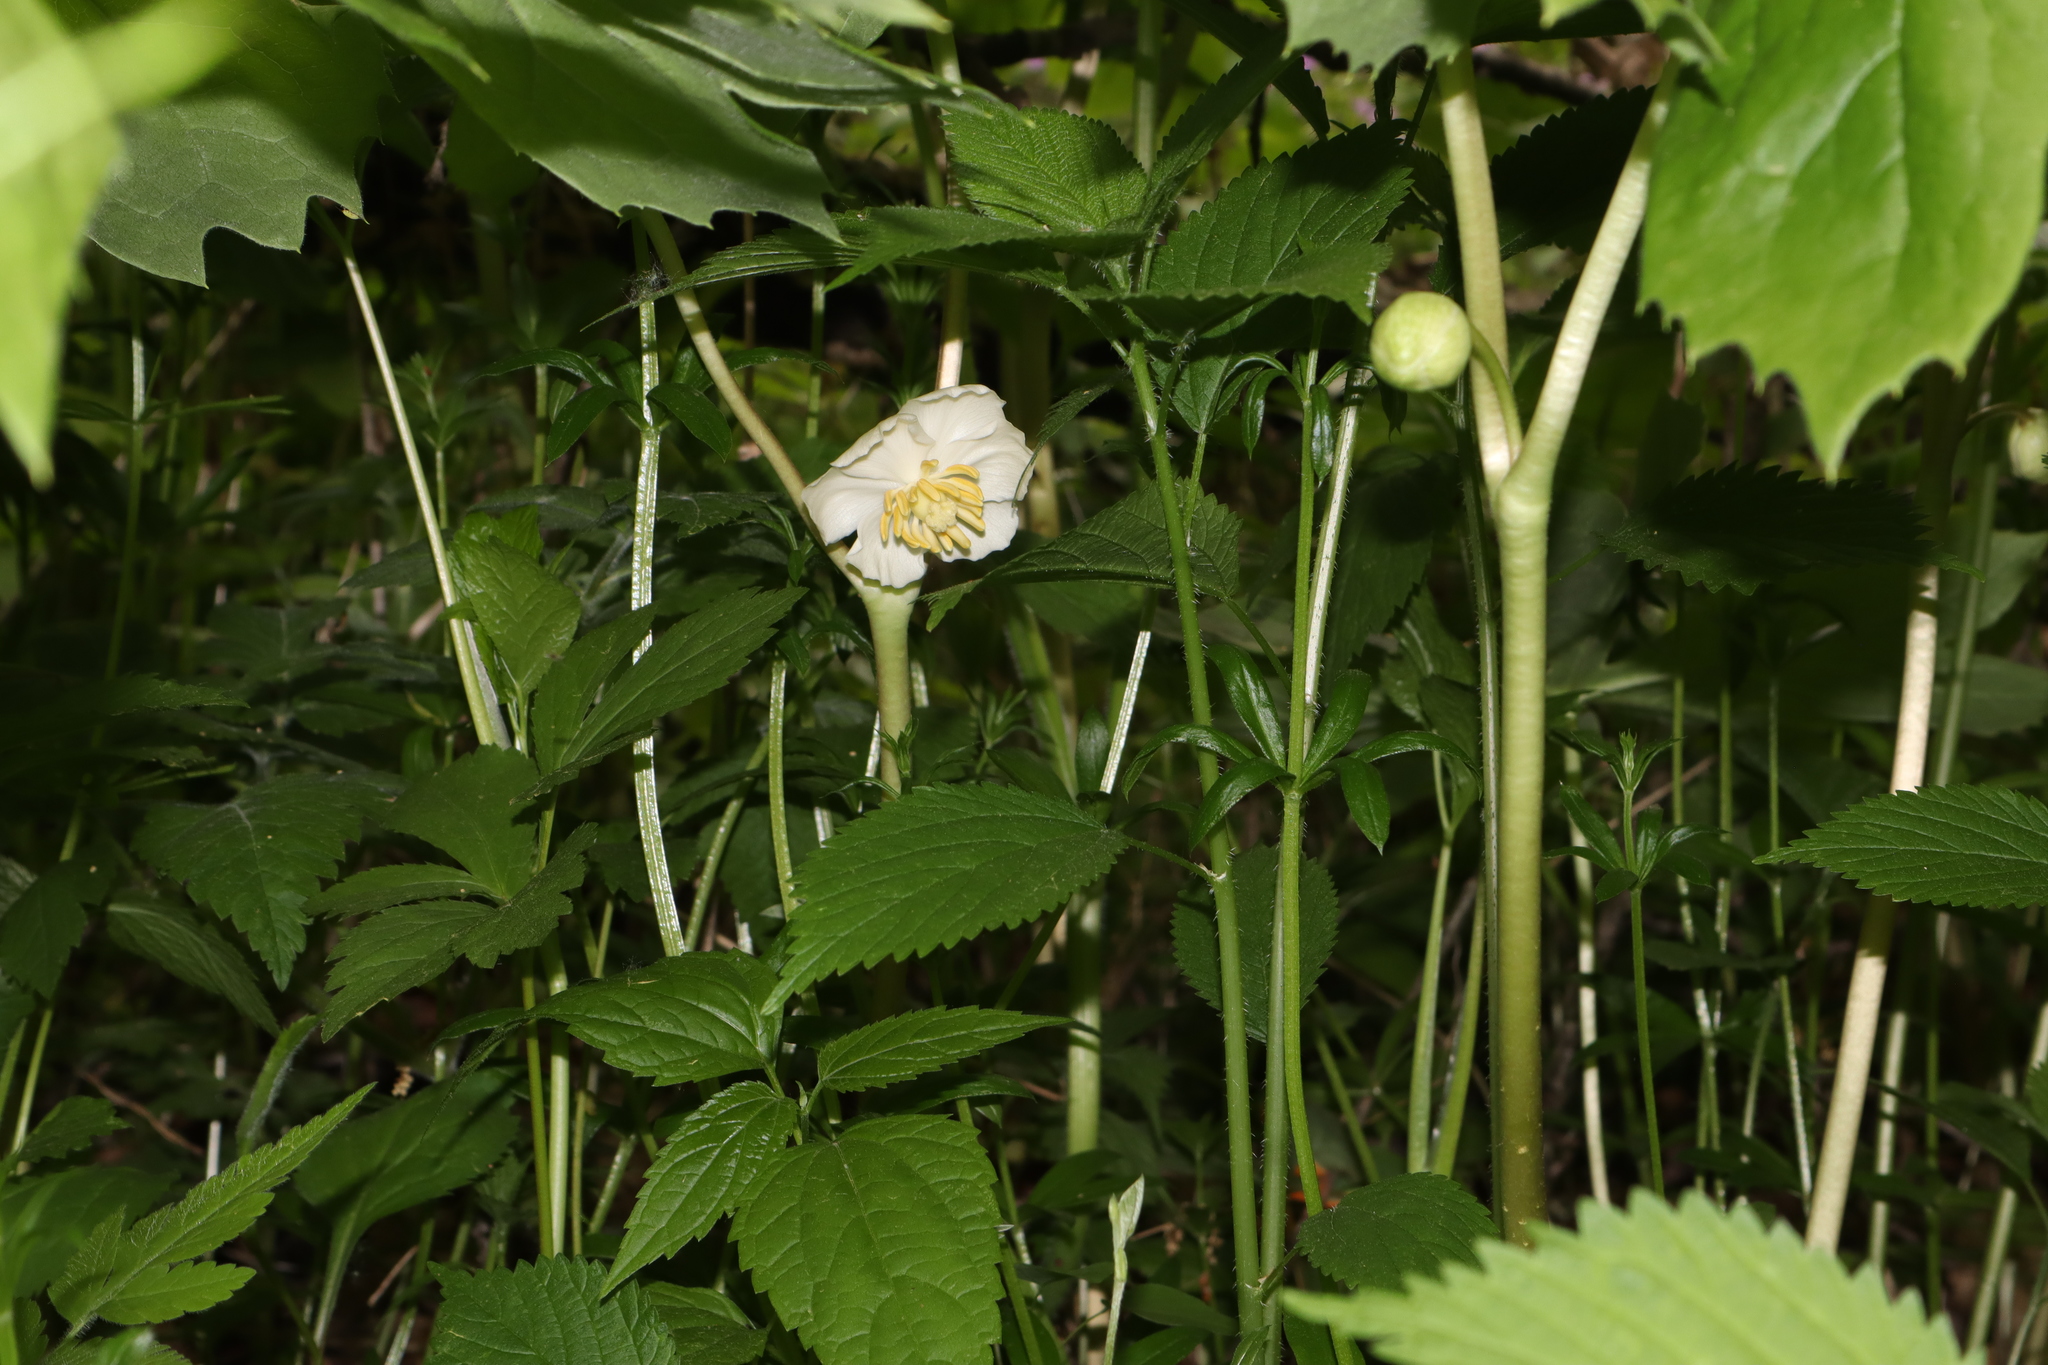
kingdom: Plantae
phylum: Tracheophyta
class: Magnoliopsida
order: Ranunculales
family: Berberidaceae
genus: Podophyllum
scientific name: Podophyllum peltatum
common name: Wild mandrake
